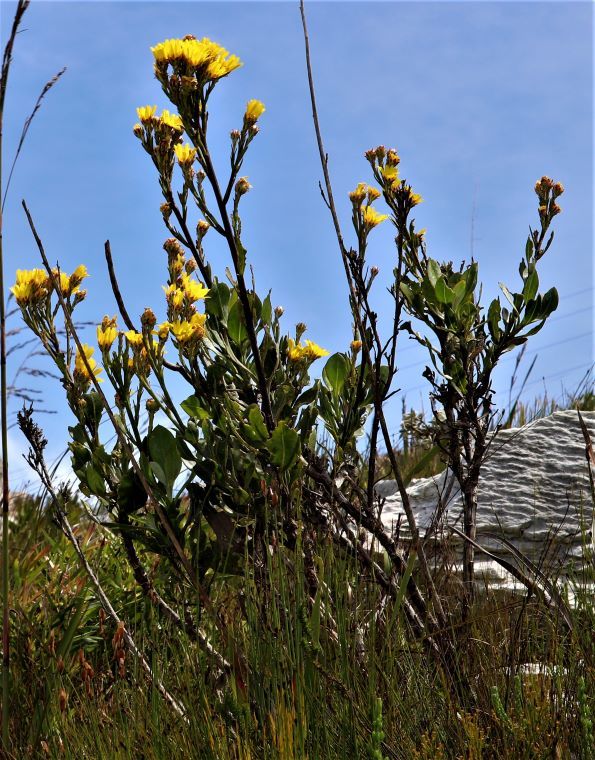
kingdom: Plantae
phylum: Tracheophyta
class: Magnoliopsida
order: Asterales
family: Asteraceae
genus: Osteospermum
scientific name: Osteospermum junceum
